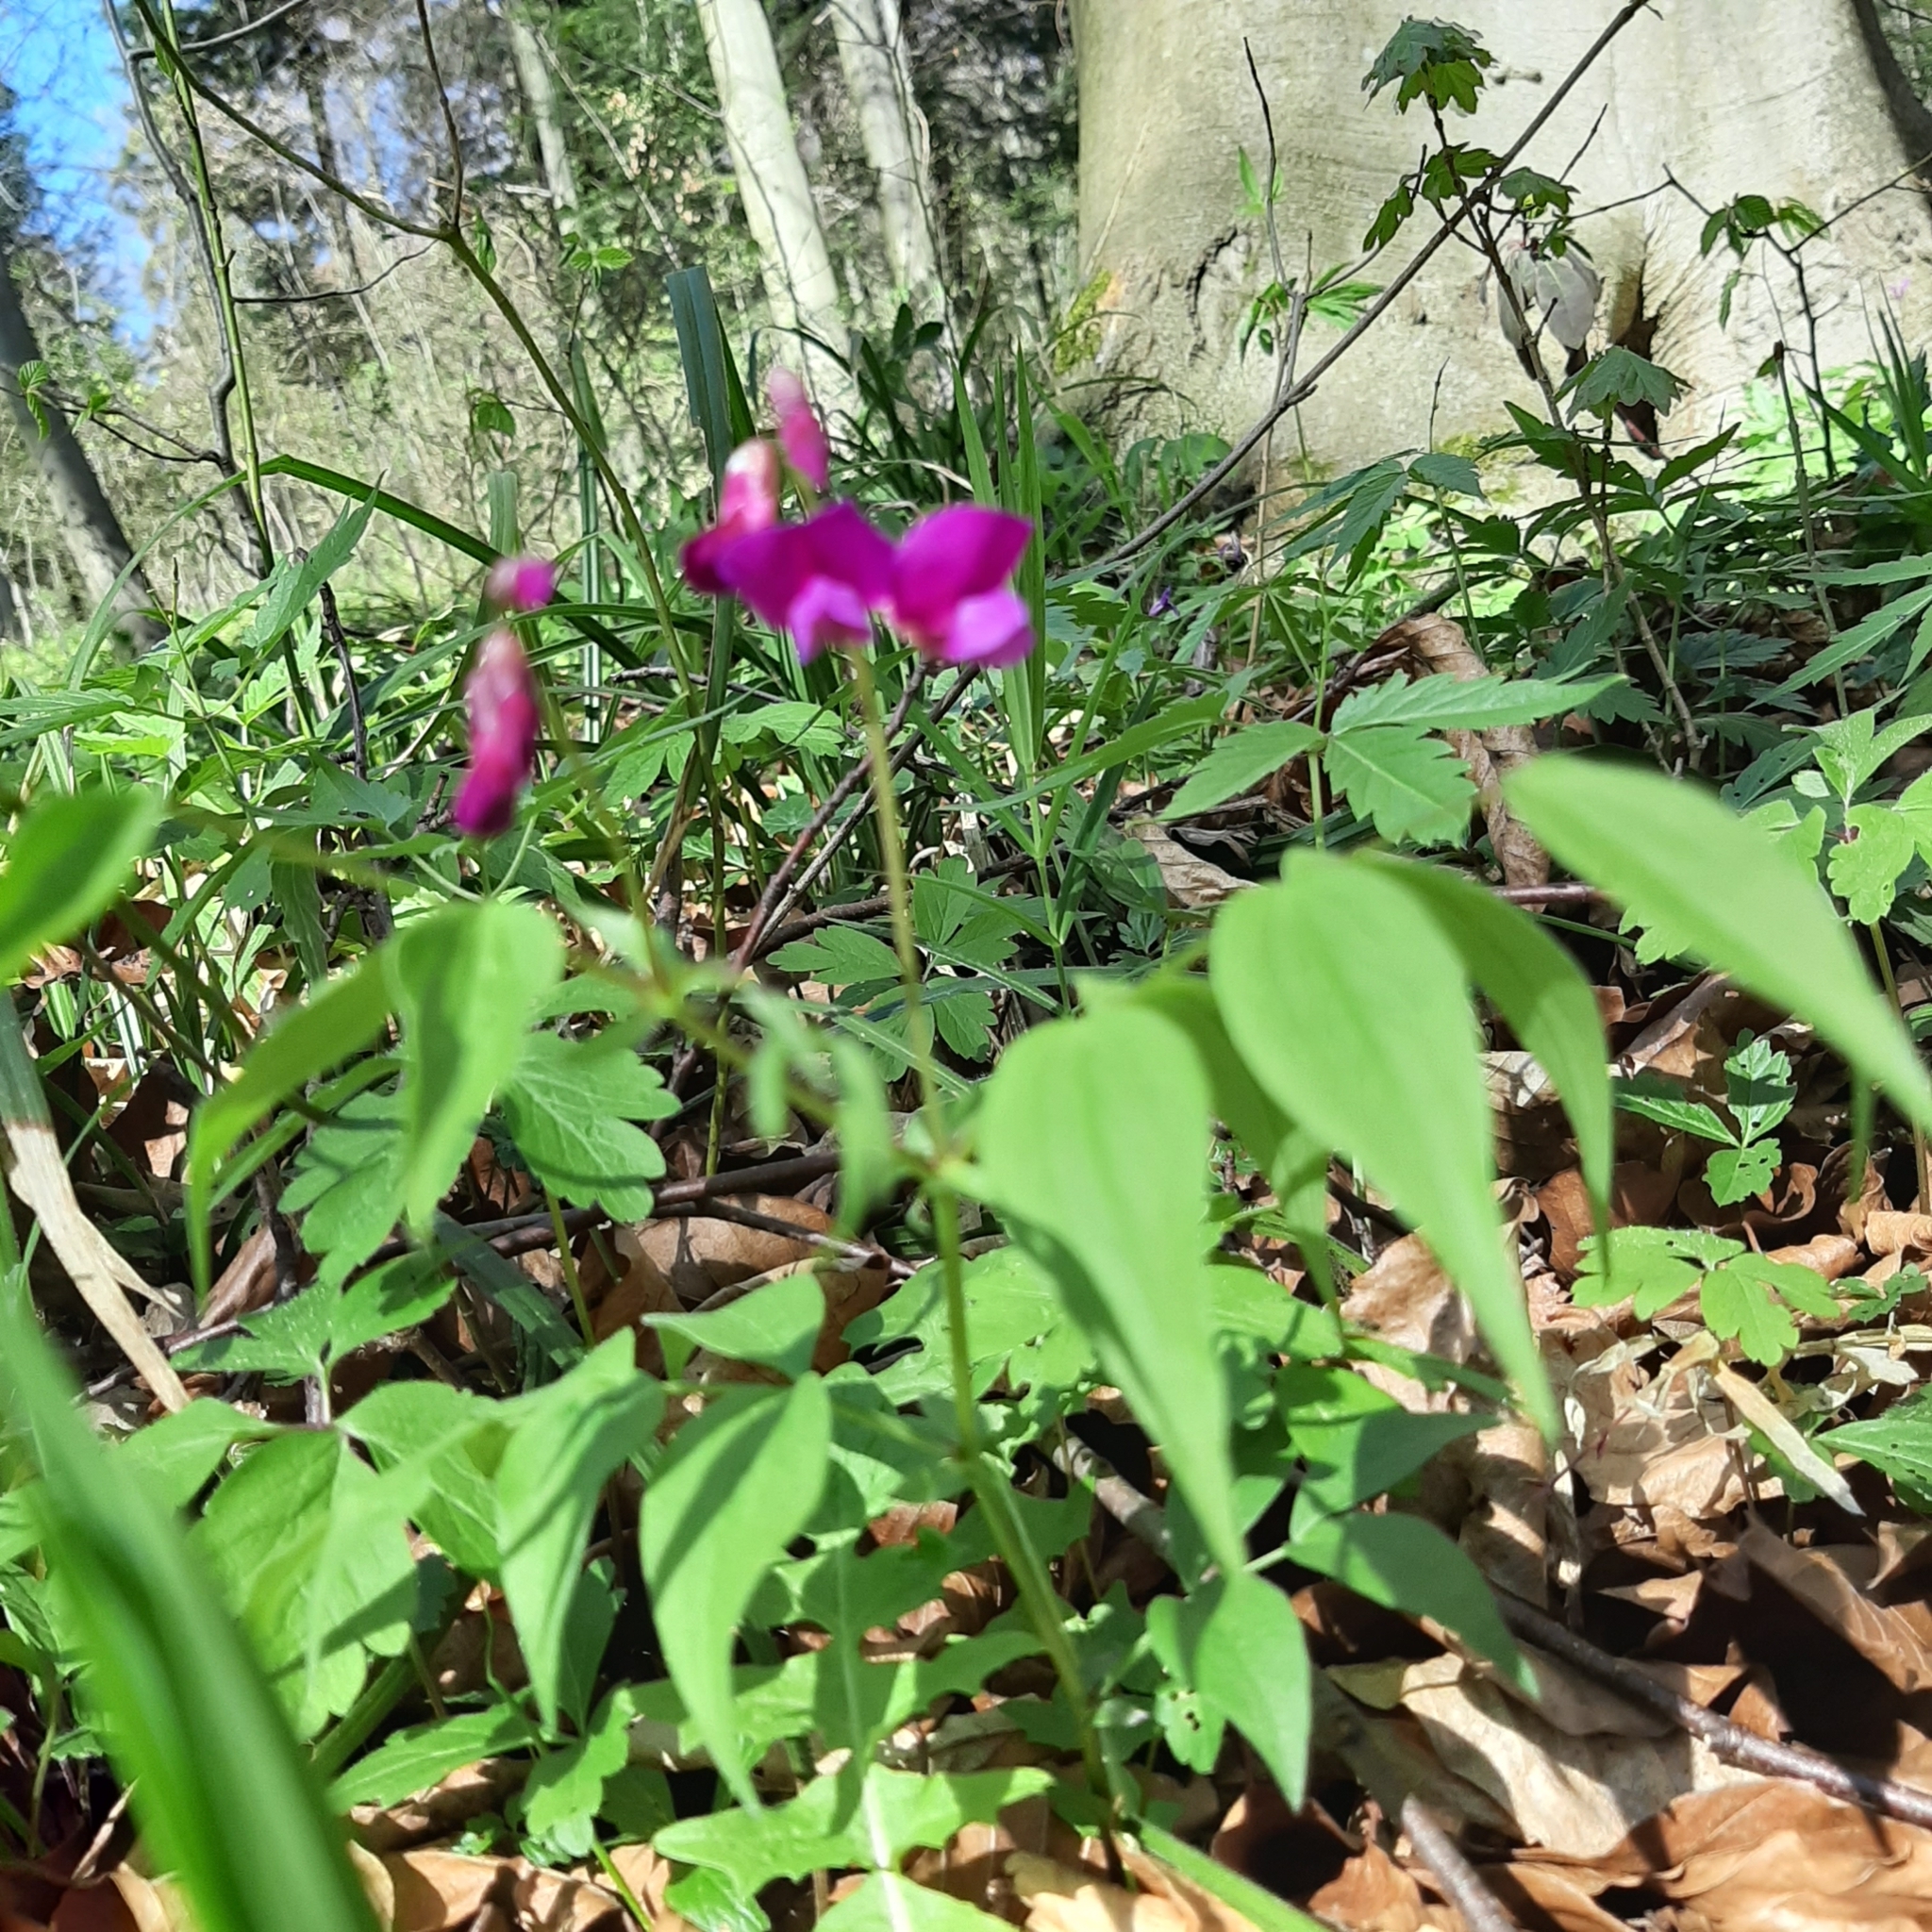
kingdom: Plantae
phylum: Tracheophyta
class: Magnoliopsida
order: Fabales
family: Fabaceae
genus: Lathyrus
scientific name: Lathyrus vernus
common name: Spring pea
